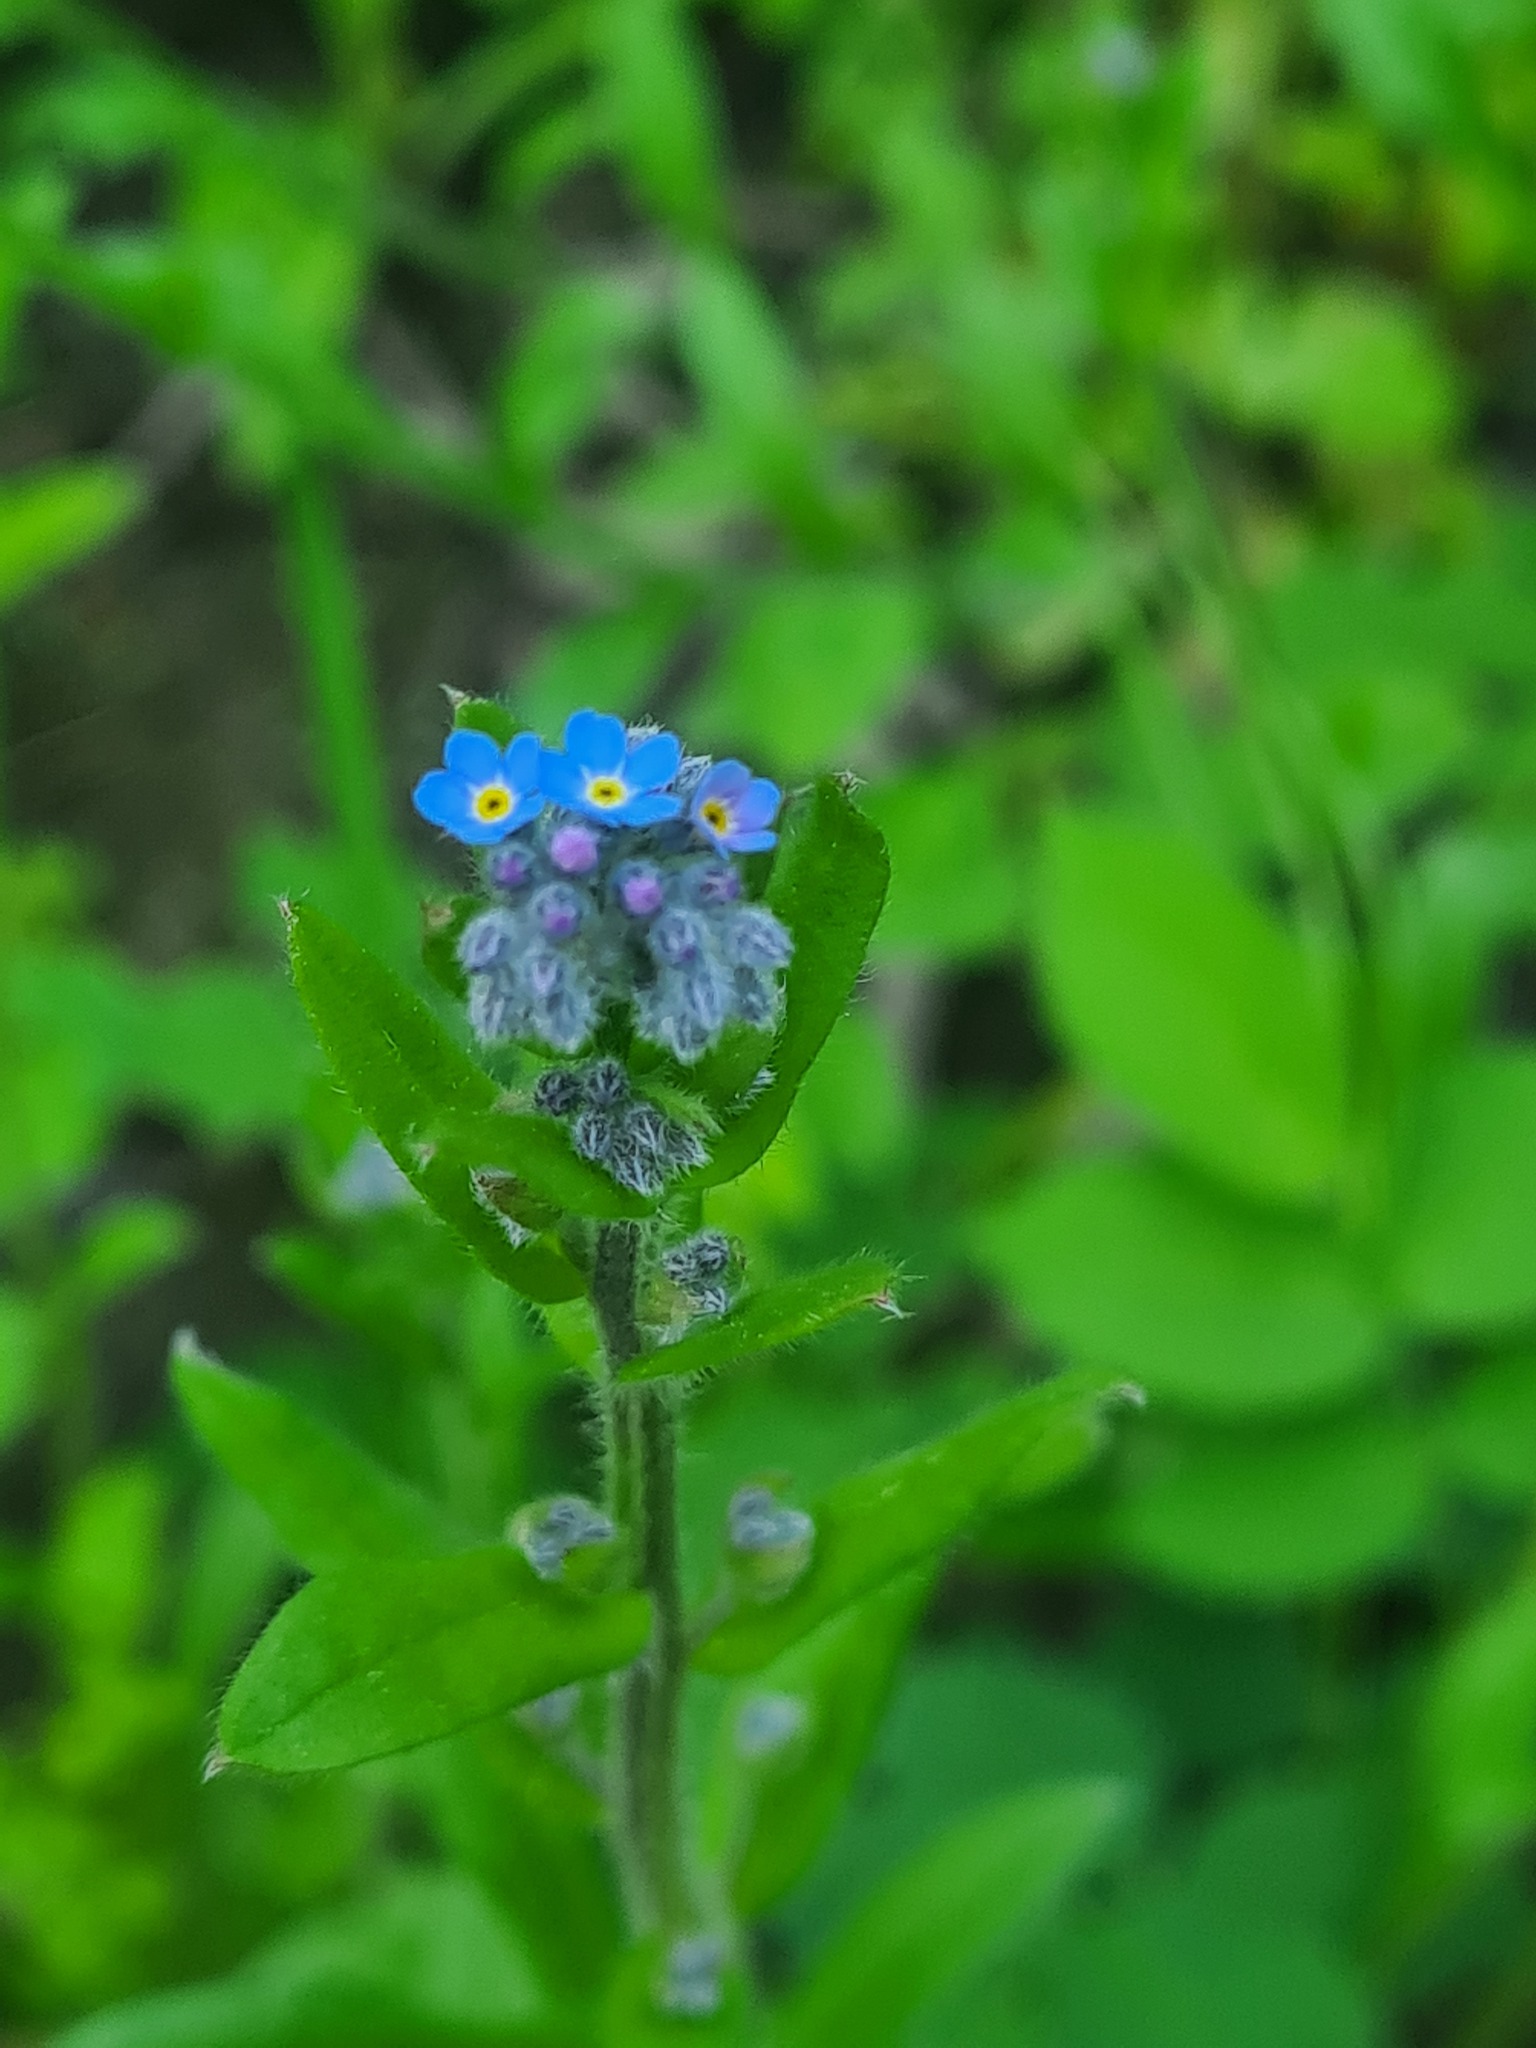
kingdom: Plantae
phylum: Tracheophyta
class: Magnoliopsida
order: Boraginales
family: Boraginaceae
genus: Myosotis
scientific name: Myosotis arvensis
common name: Field forget-me-not
